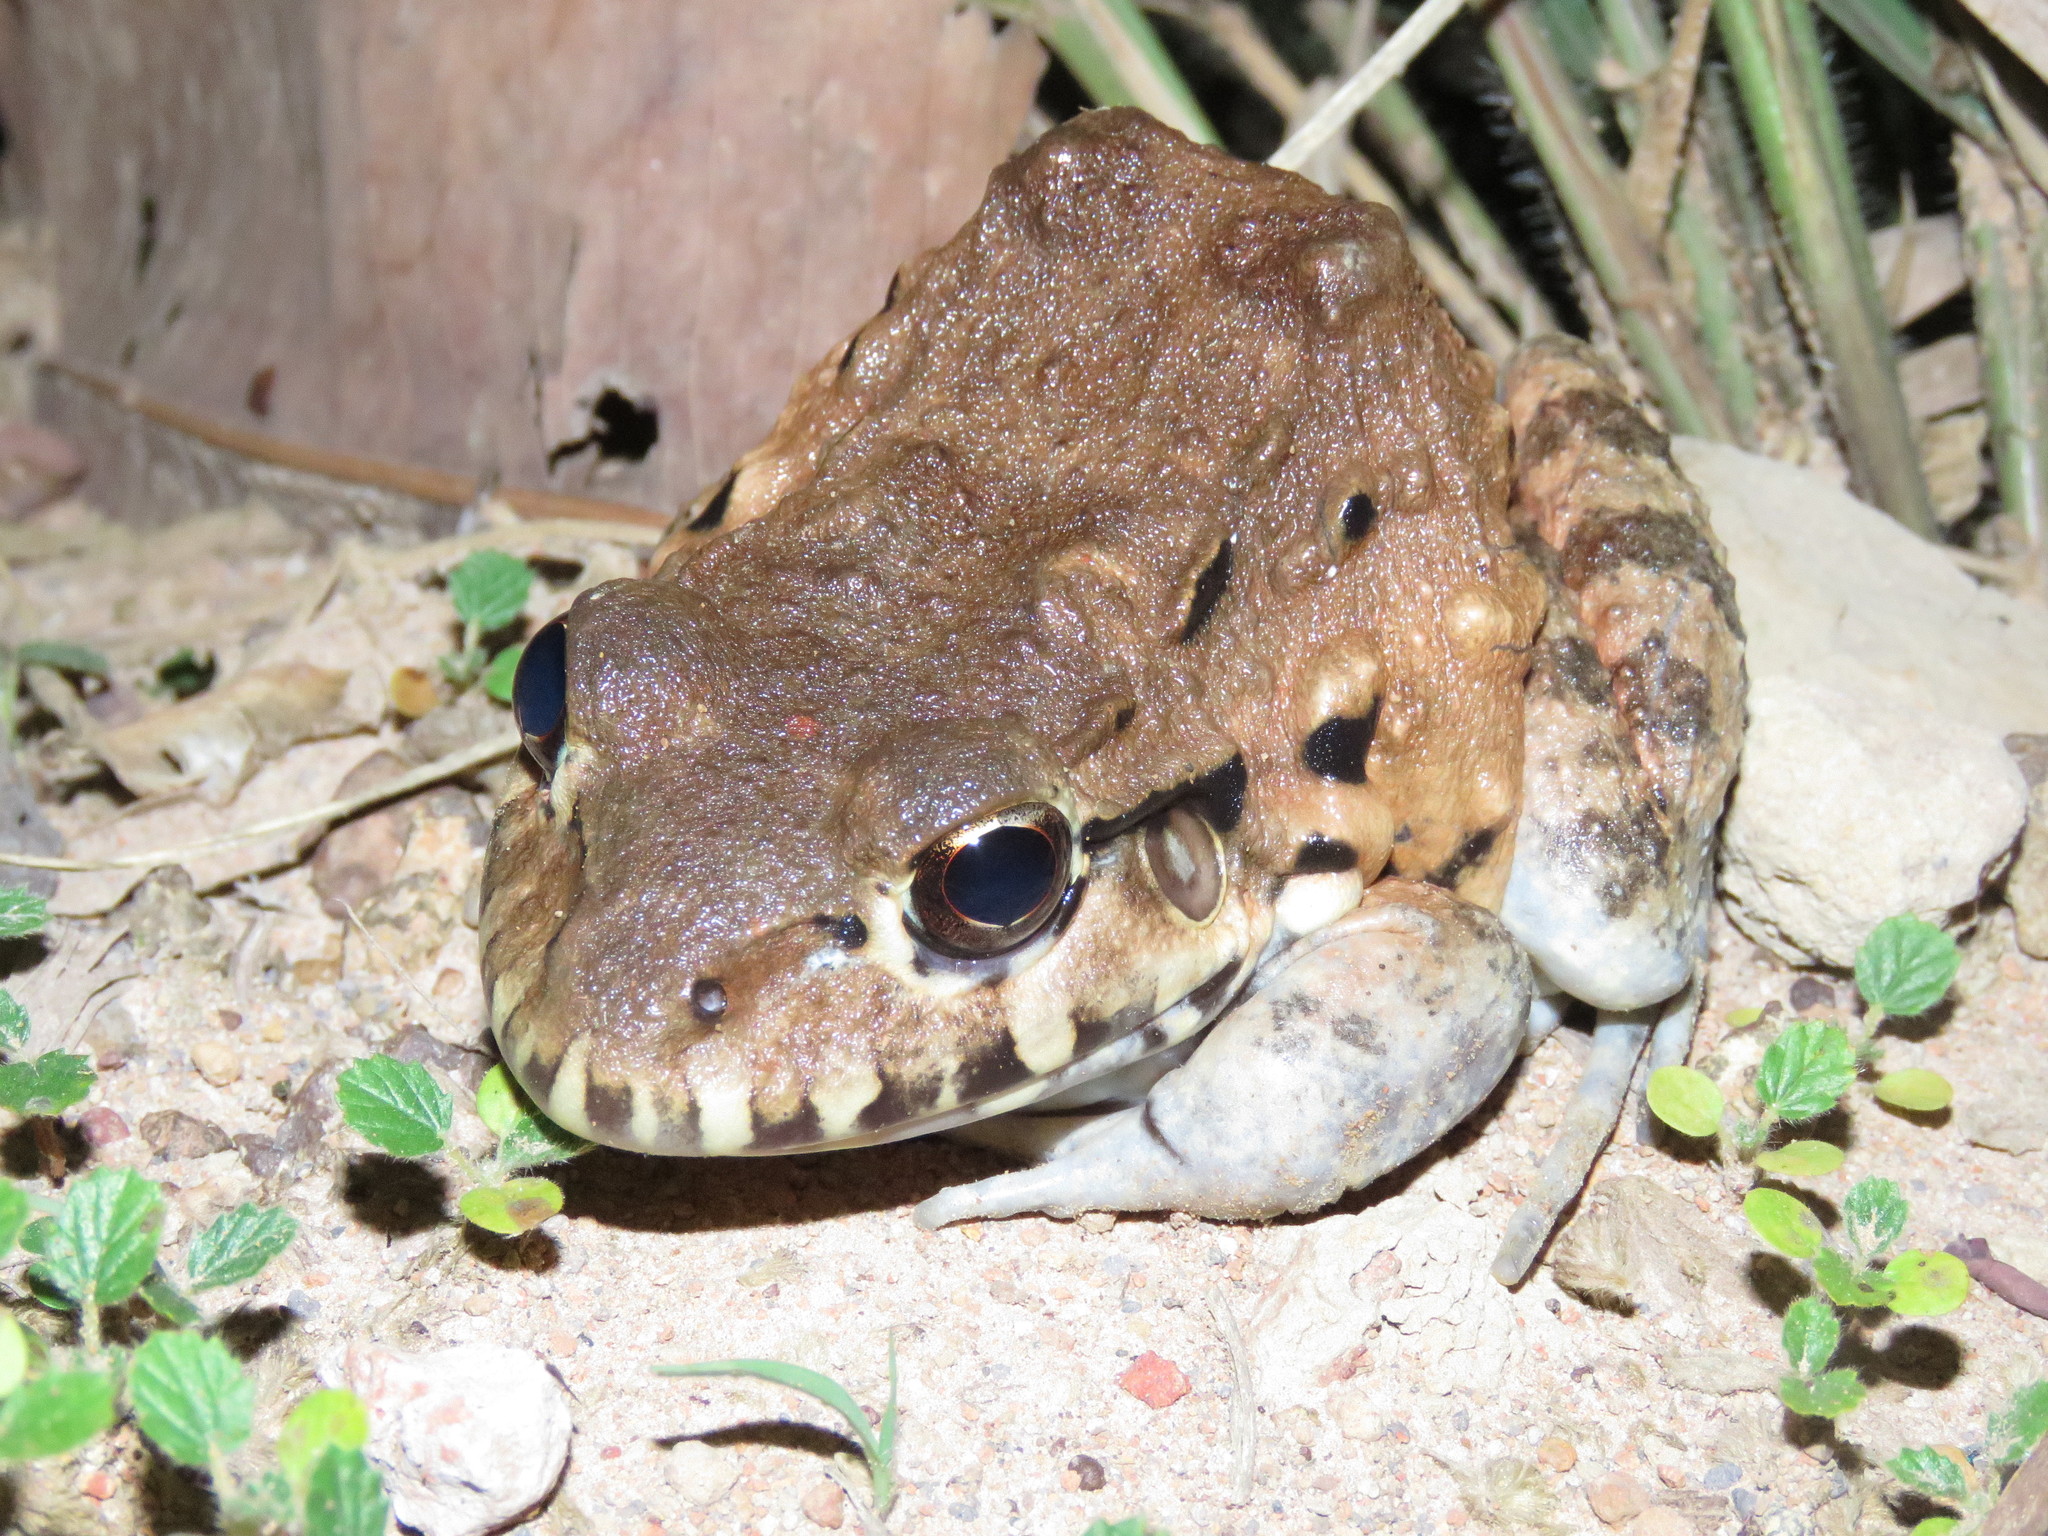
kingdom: Animalia
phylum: Chordata
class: Amphibia
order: Anura
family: Leptodactylidae
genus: Leptodactylus
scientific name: Leptodactylus pentadactylus
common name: Smoky jungle frog
